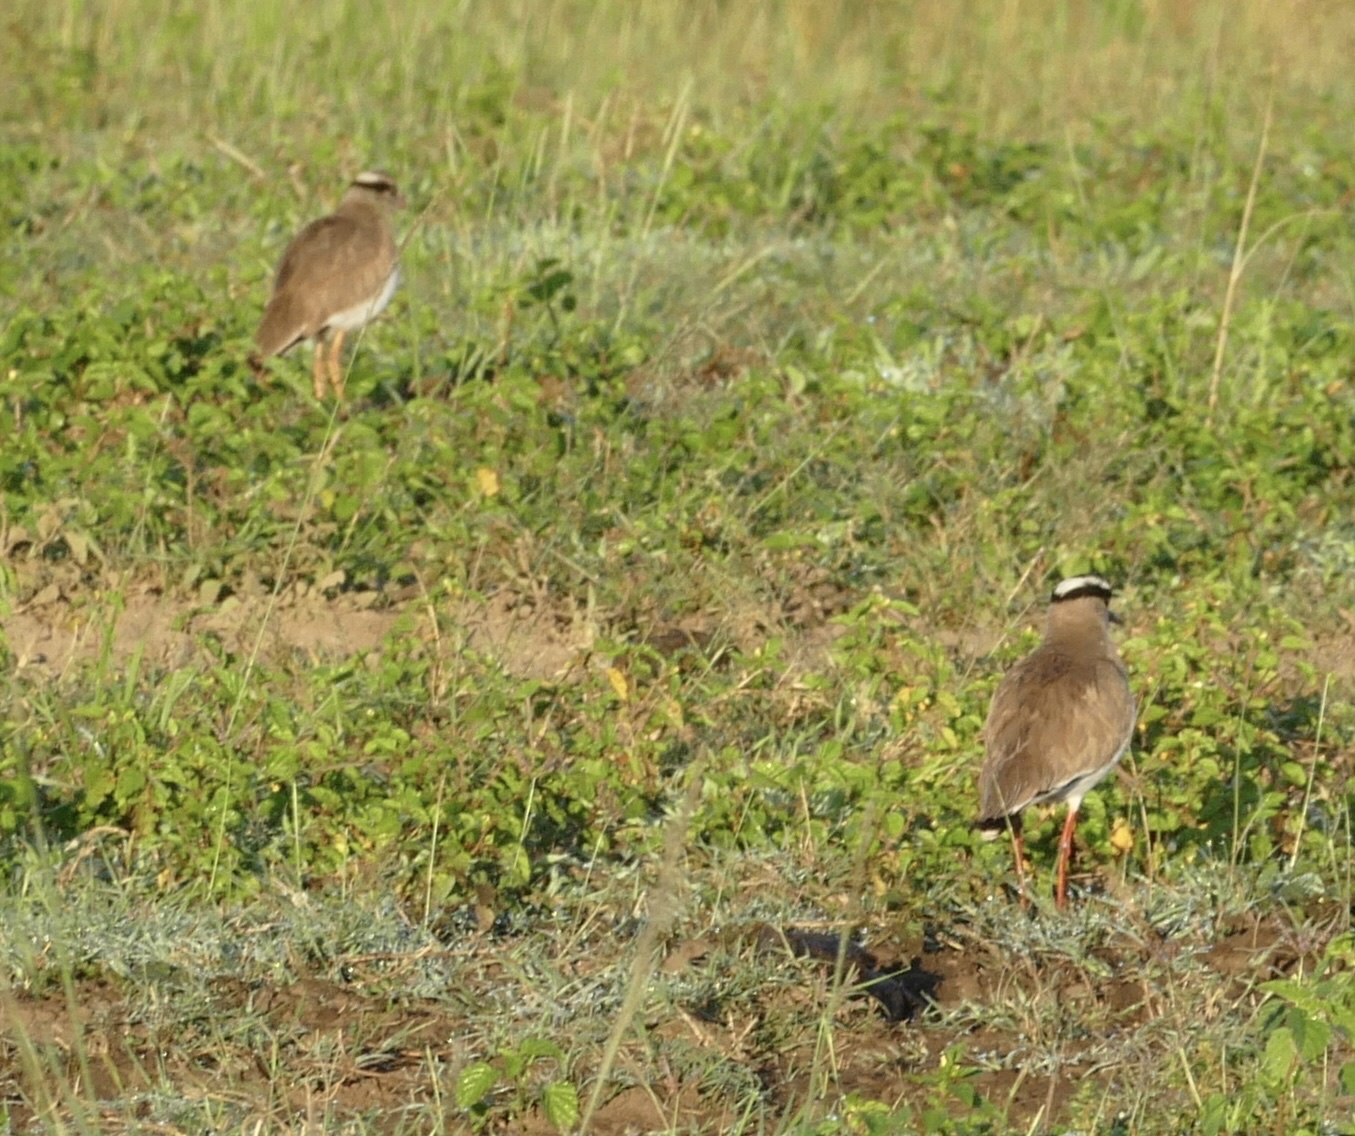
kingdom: Animalia
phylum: Chordata
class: Aves
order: Charadriiformes
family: Charadriidae
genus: Vanellus
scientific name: Vanellus coronatus
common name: Crowned lapwing
